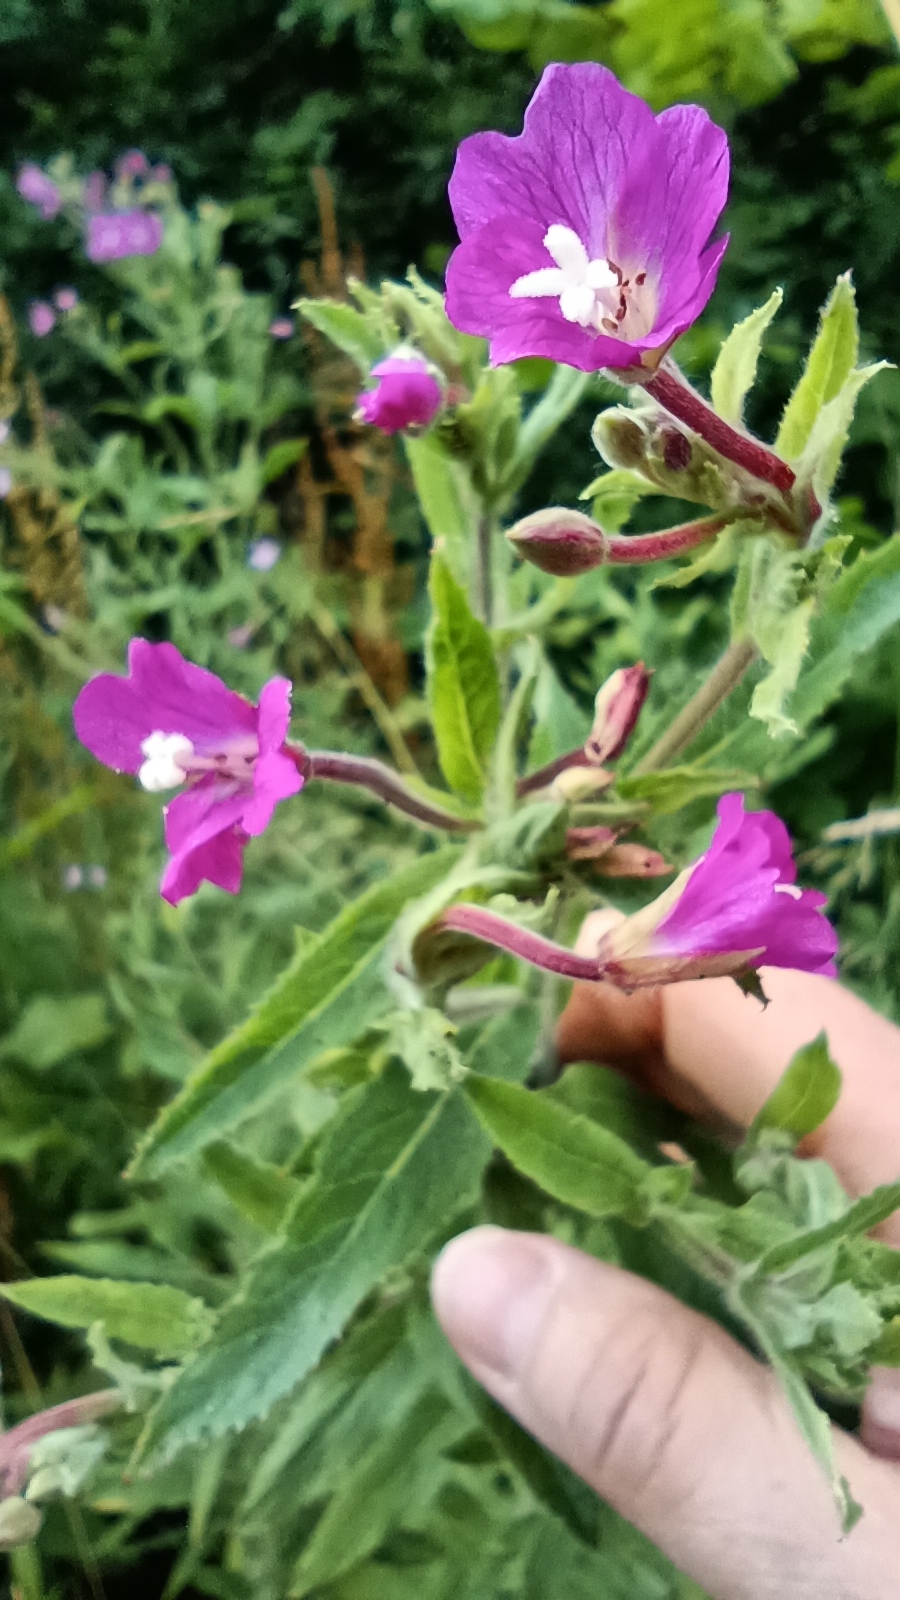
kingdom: Plantae
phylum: Tracheophyta
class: Magnoliopsida
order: Myrtales
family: Onagraceae
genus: Epilobium
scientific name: Epilobium hirsutum
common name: Great willowherb
